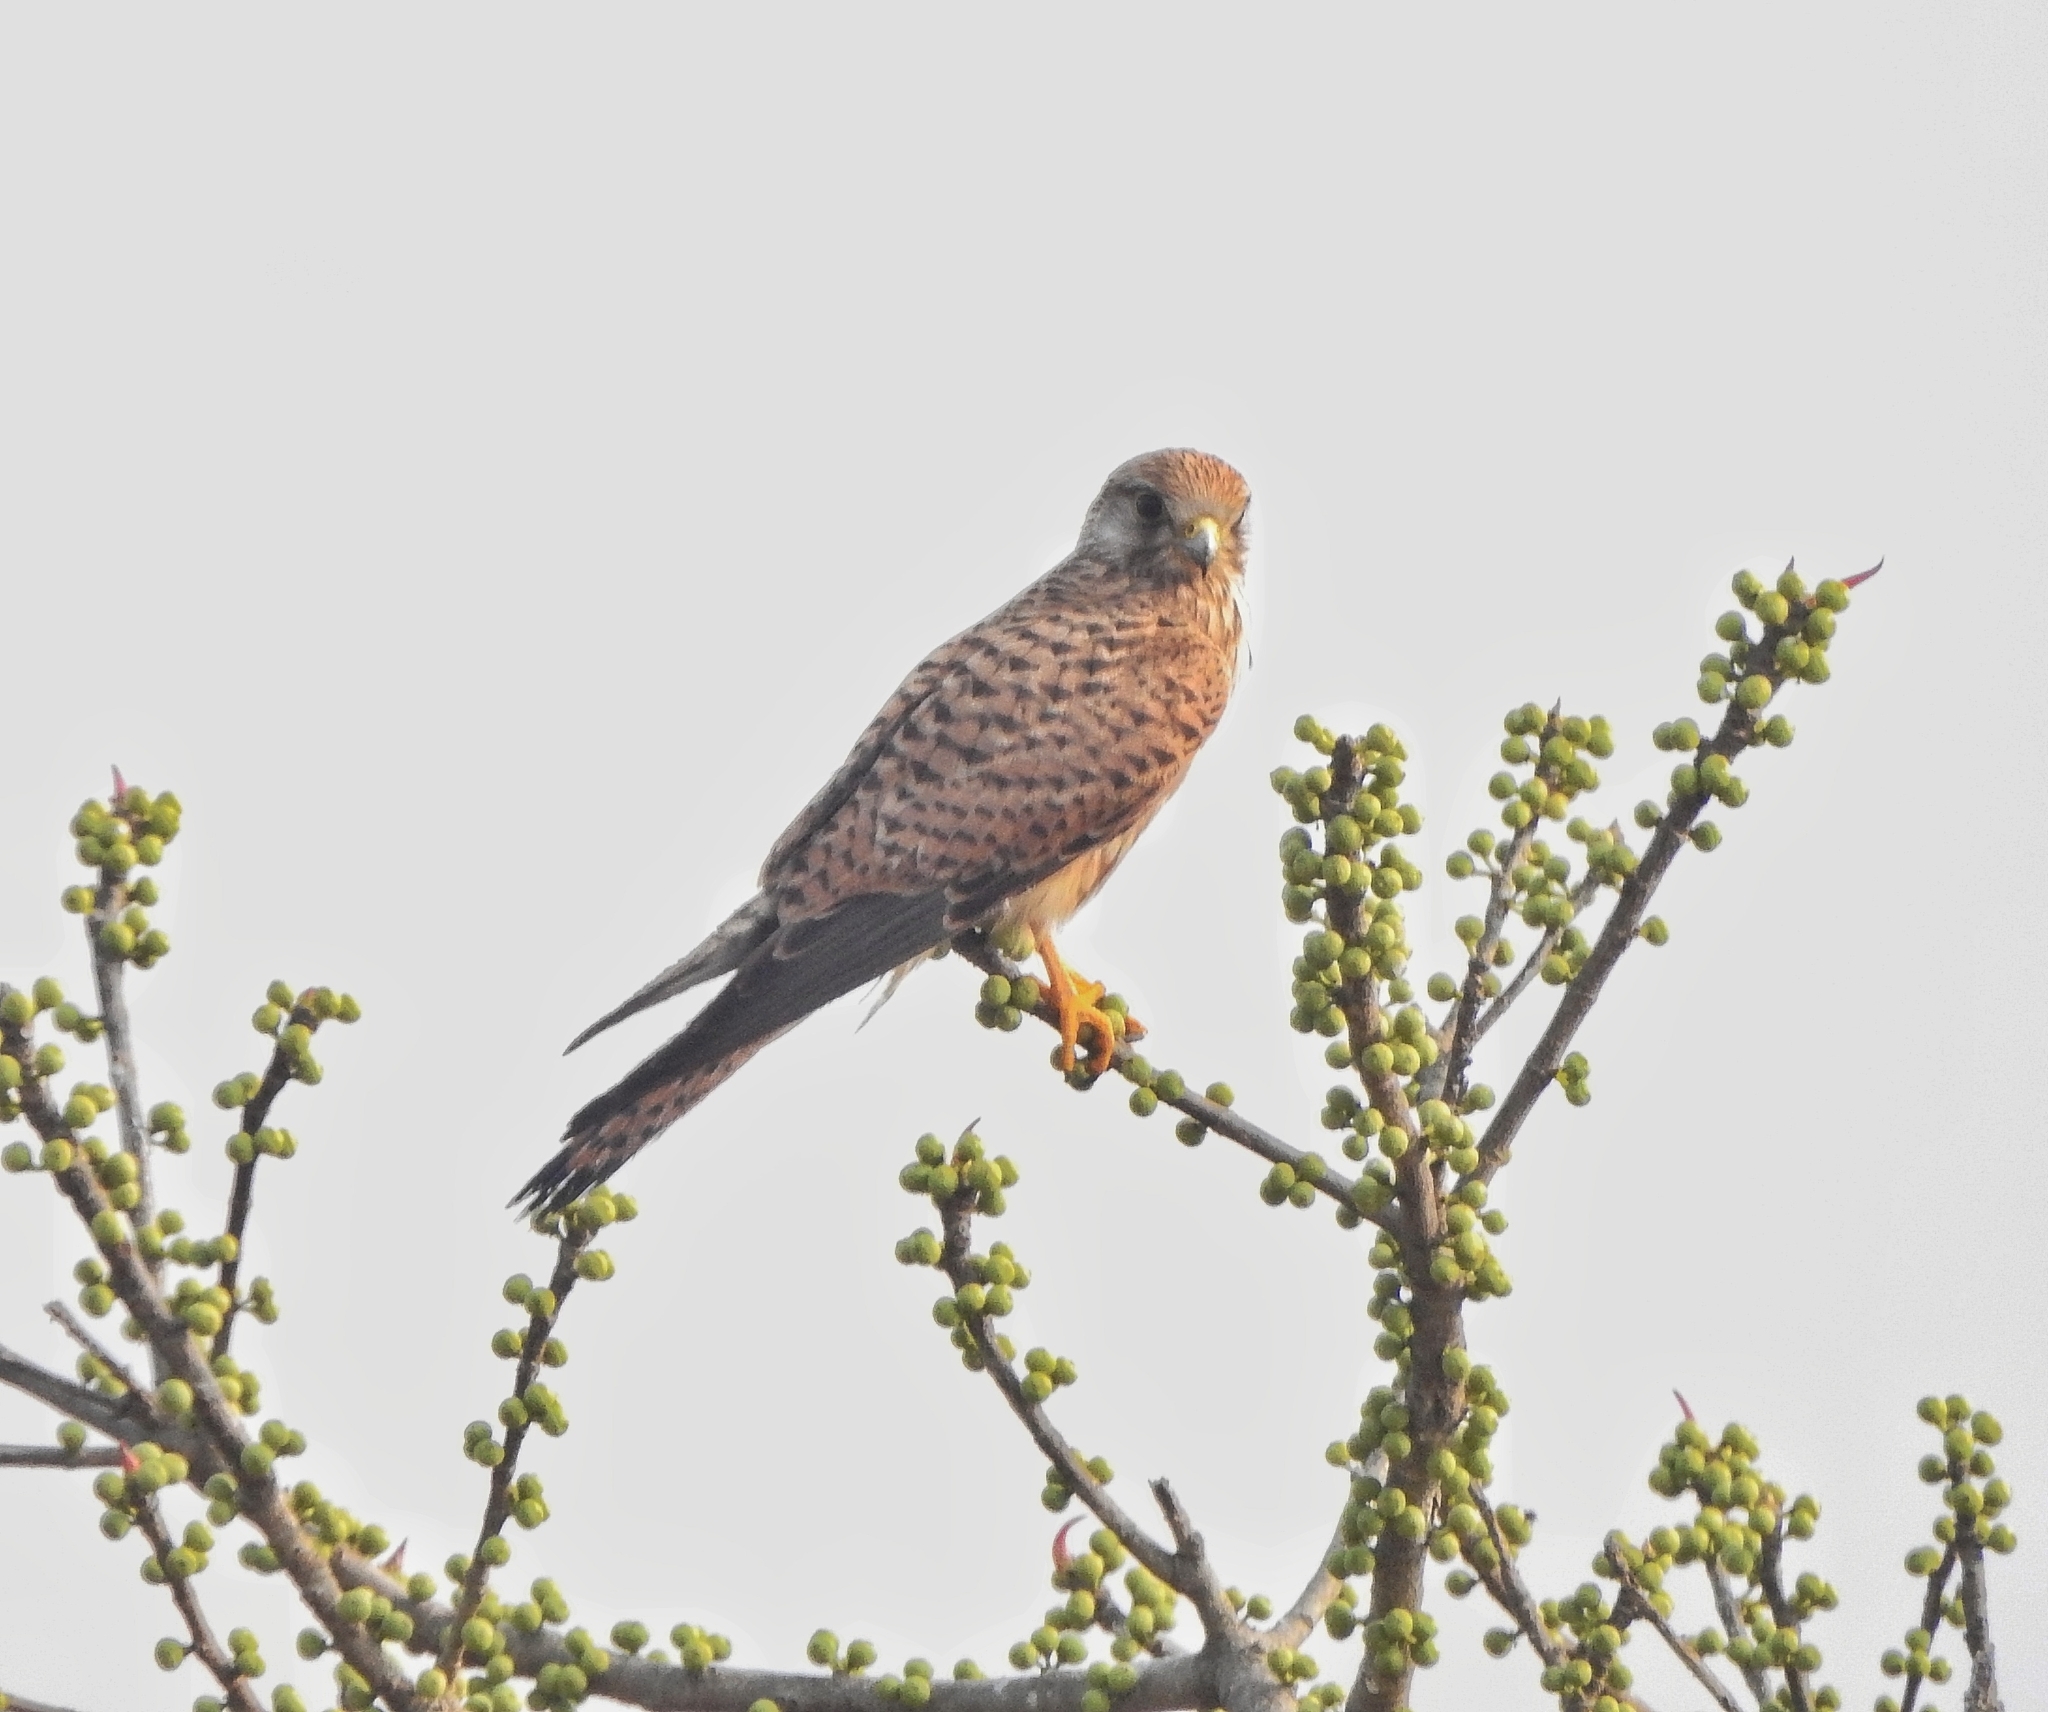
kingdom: Animalia
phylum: Chordata
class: Aves
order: Falconiformes
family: Falconidae
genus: Falco
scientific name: Falco tinnunculus
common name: Common kestrel
